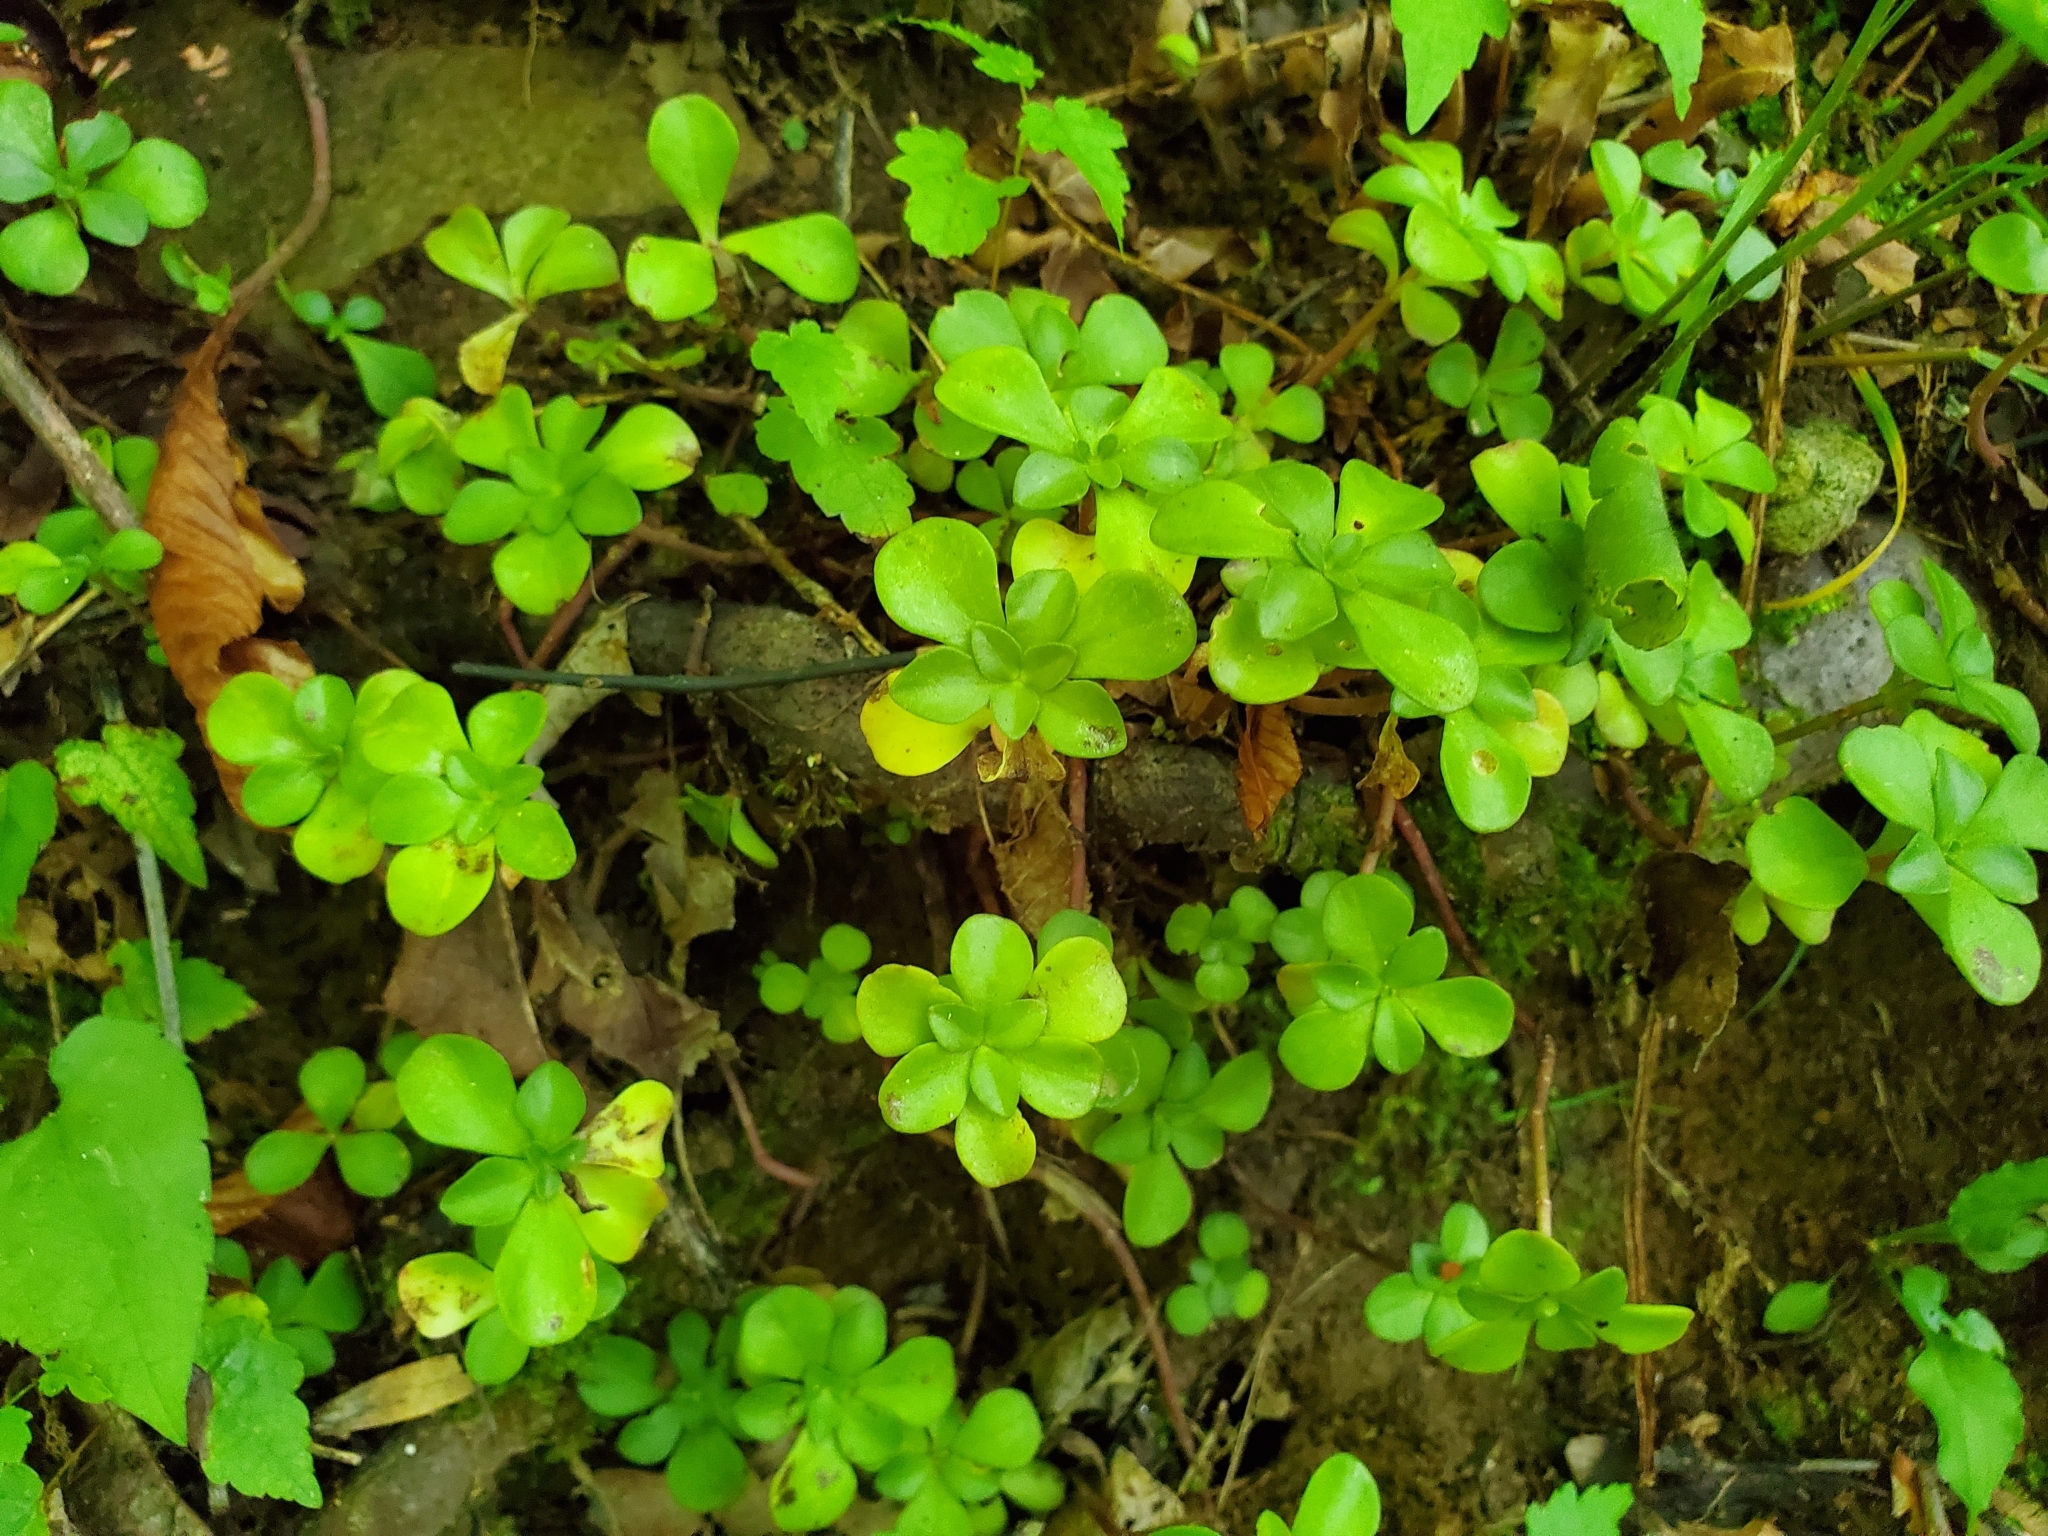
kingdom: Plantae
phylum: Tracheophyta
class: Magnoliopsida
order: Saxifragales
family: Crassulaceae
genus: Sedum
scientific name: Sedum ternatum
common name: Wild stonecrop
